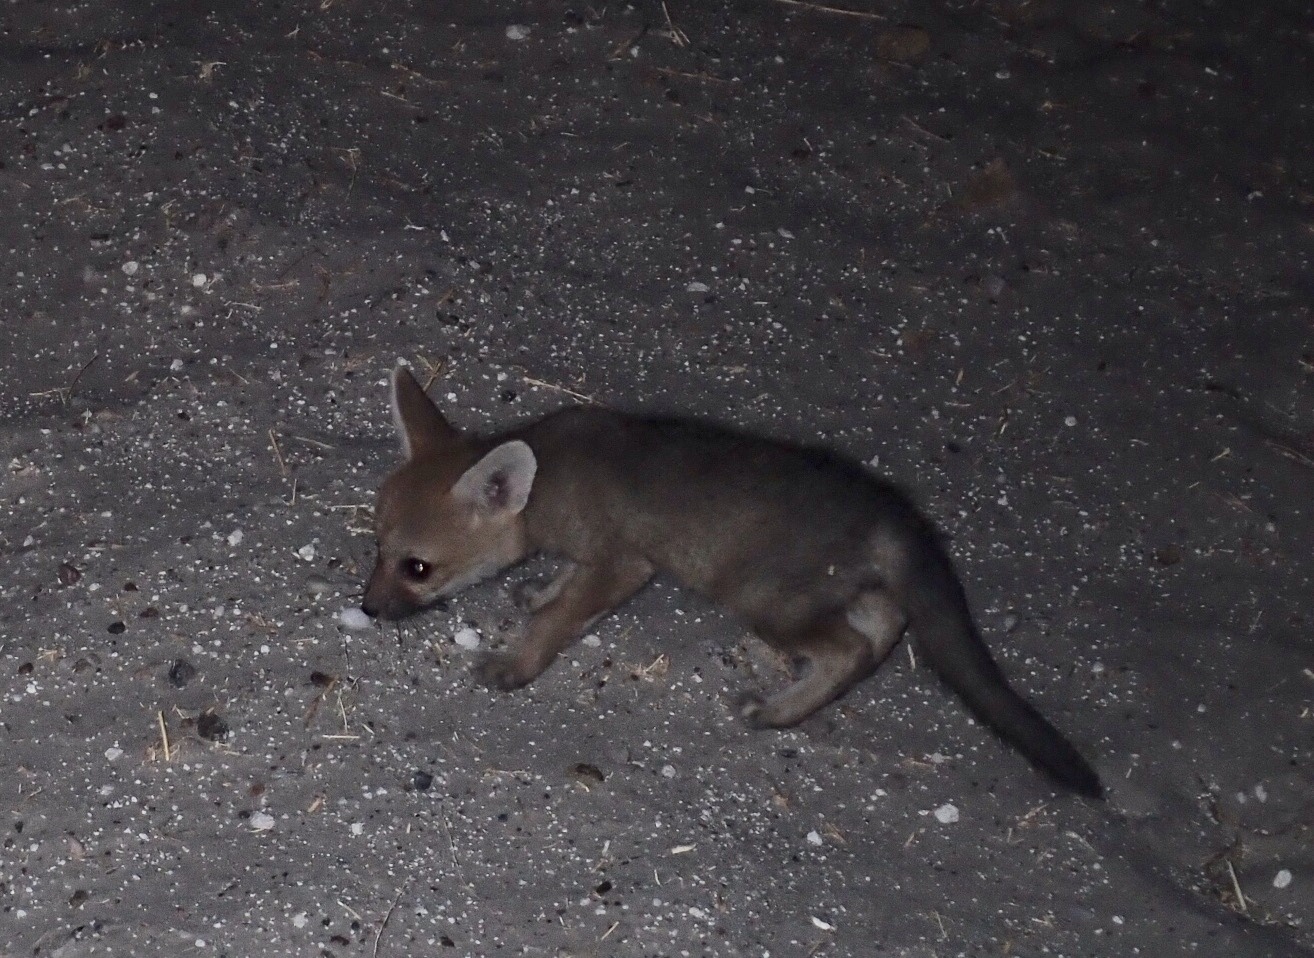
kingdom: Animalia
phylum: Chordata
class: Mammalia
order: Carnivora
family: Canidae
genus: Vulpes
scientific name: Vulpes chama
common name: Cape fox
